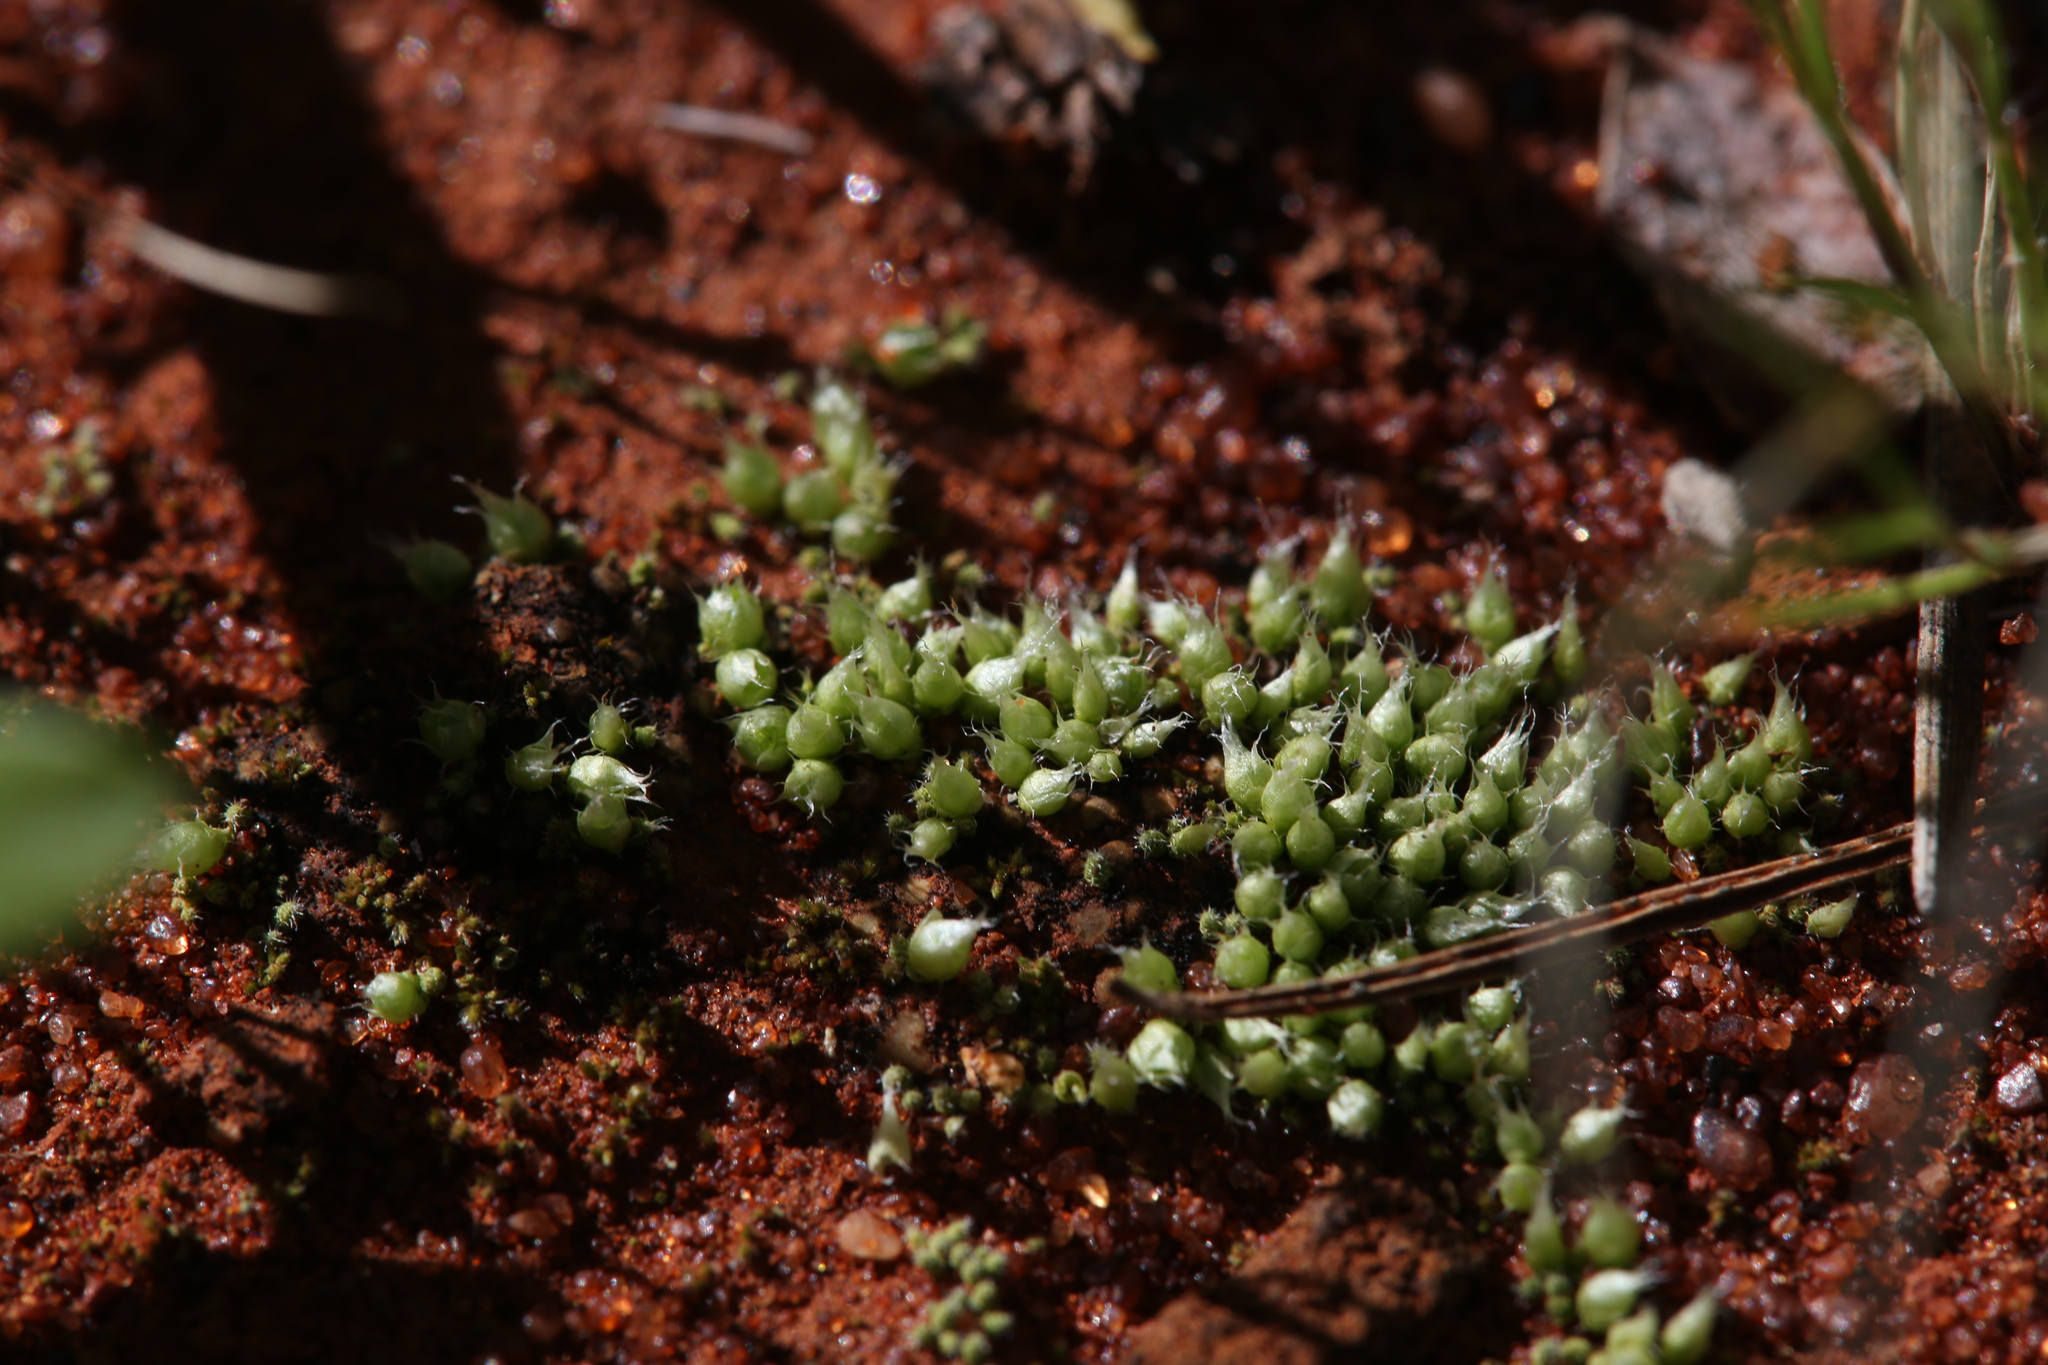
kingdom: Plantae
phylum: Bryophyta
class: Bryopsida
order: Gigaspermales
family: Gigaspermaceae
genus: Gigaspermum
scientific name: Gigaspermum repens
